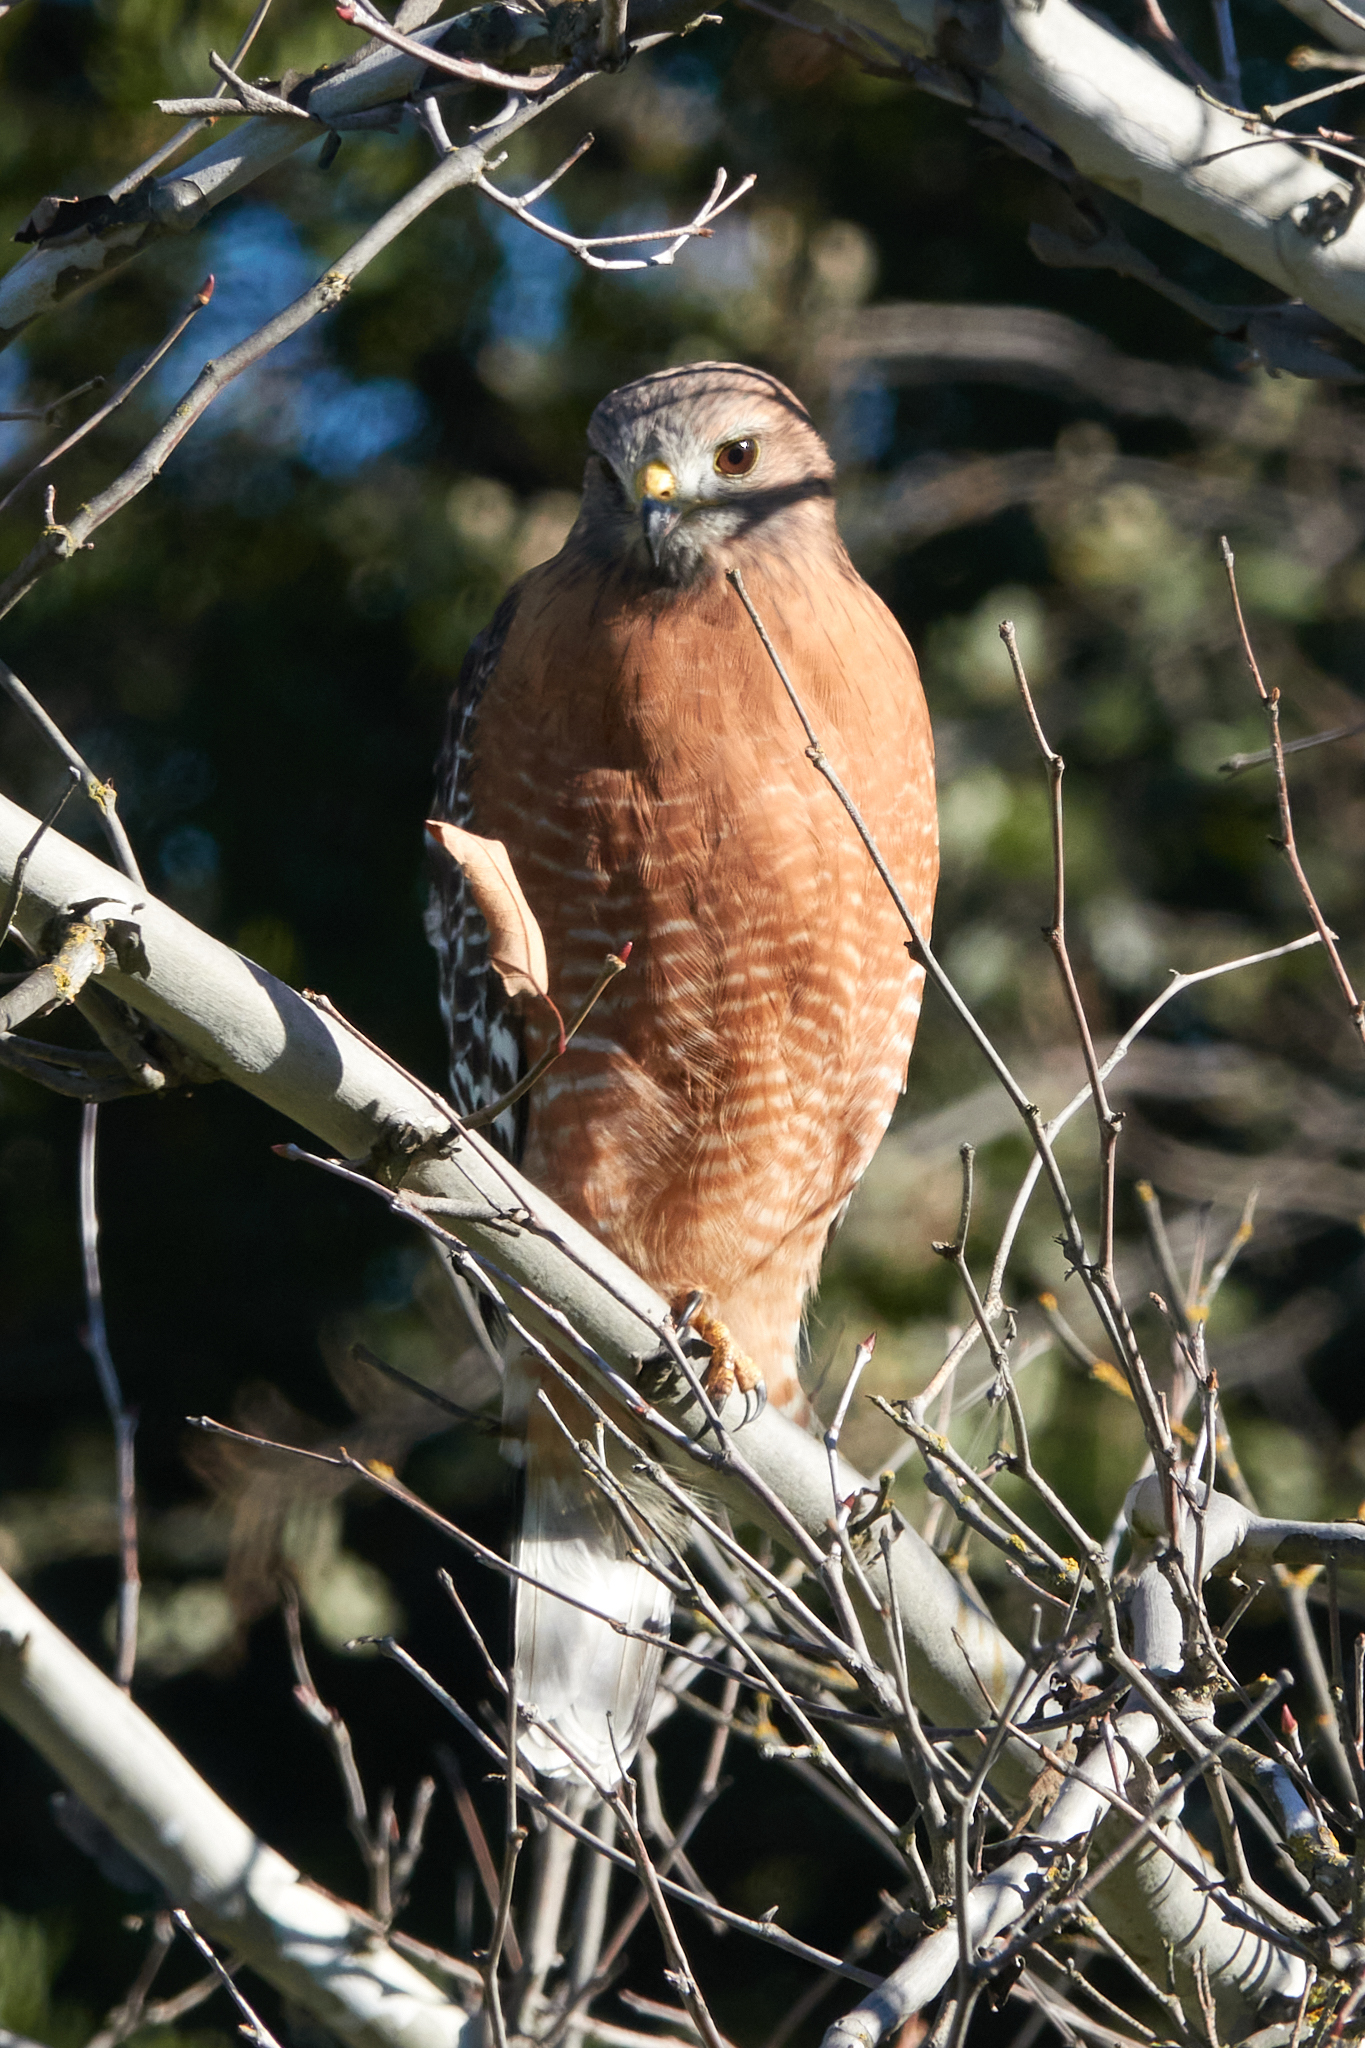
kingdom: Animalia
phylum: Chordata
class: Aves
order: Accipitriformes
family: Accipitridae
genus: Buteo
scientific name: Buteo lineatus
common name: Red-shouldered hawk
